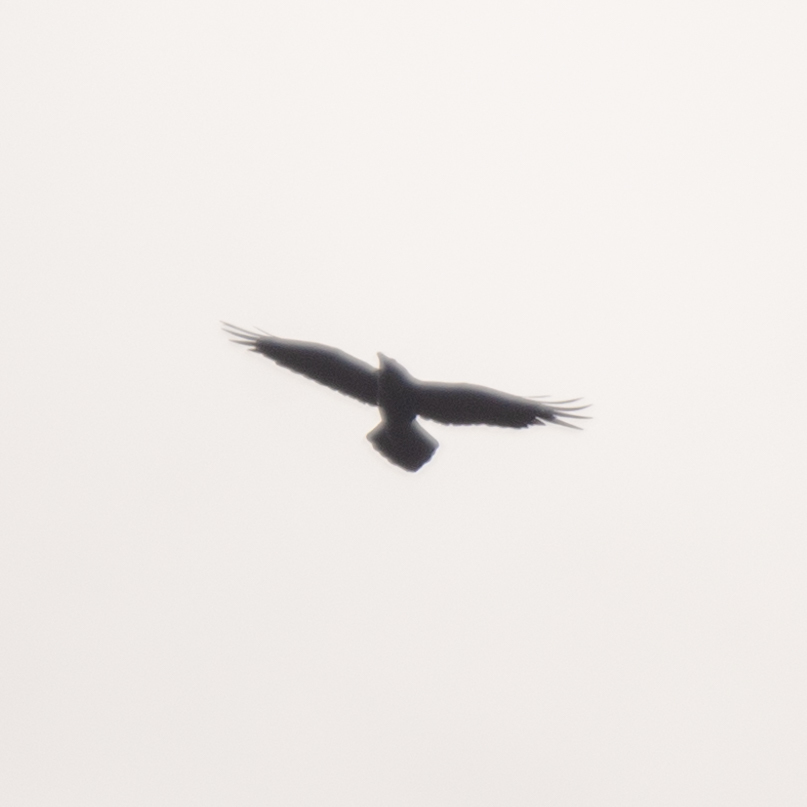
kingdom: Animalia
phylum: Chordata
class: Aves
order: Passeriformes
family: Corvidae
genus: Corvus
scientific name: Corvus corax
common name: Common raven
